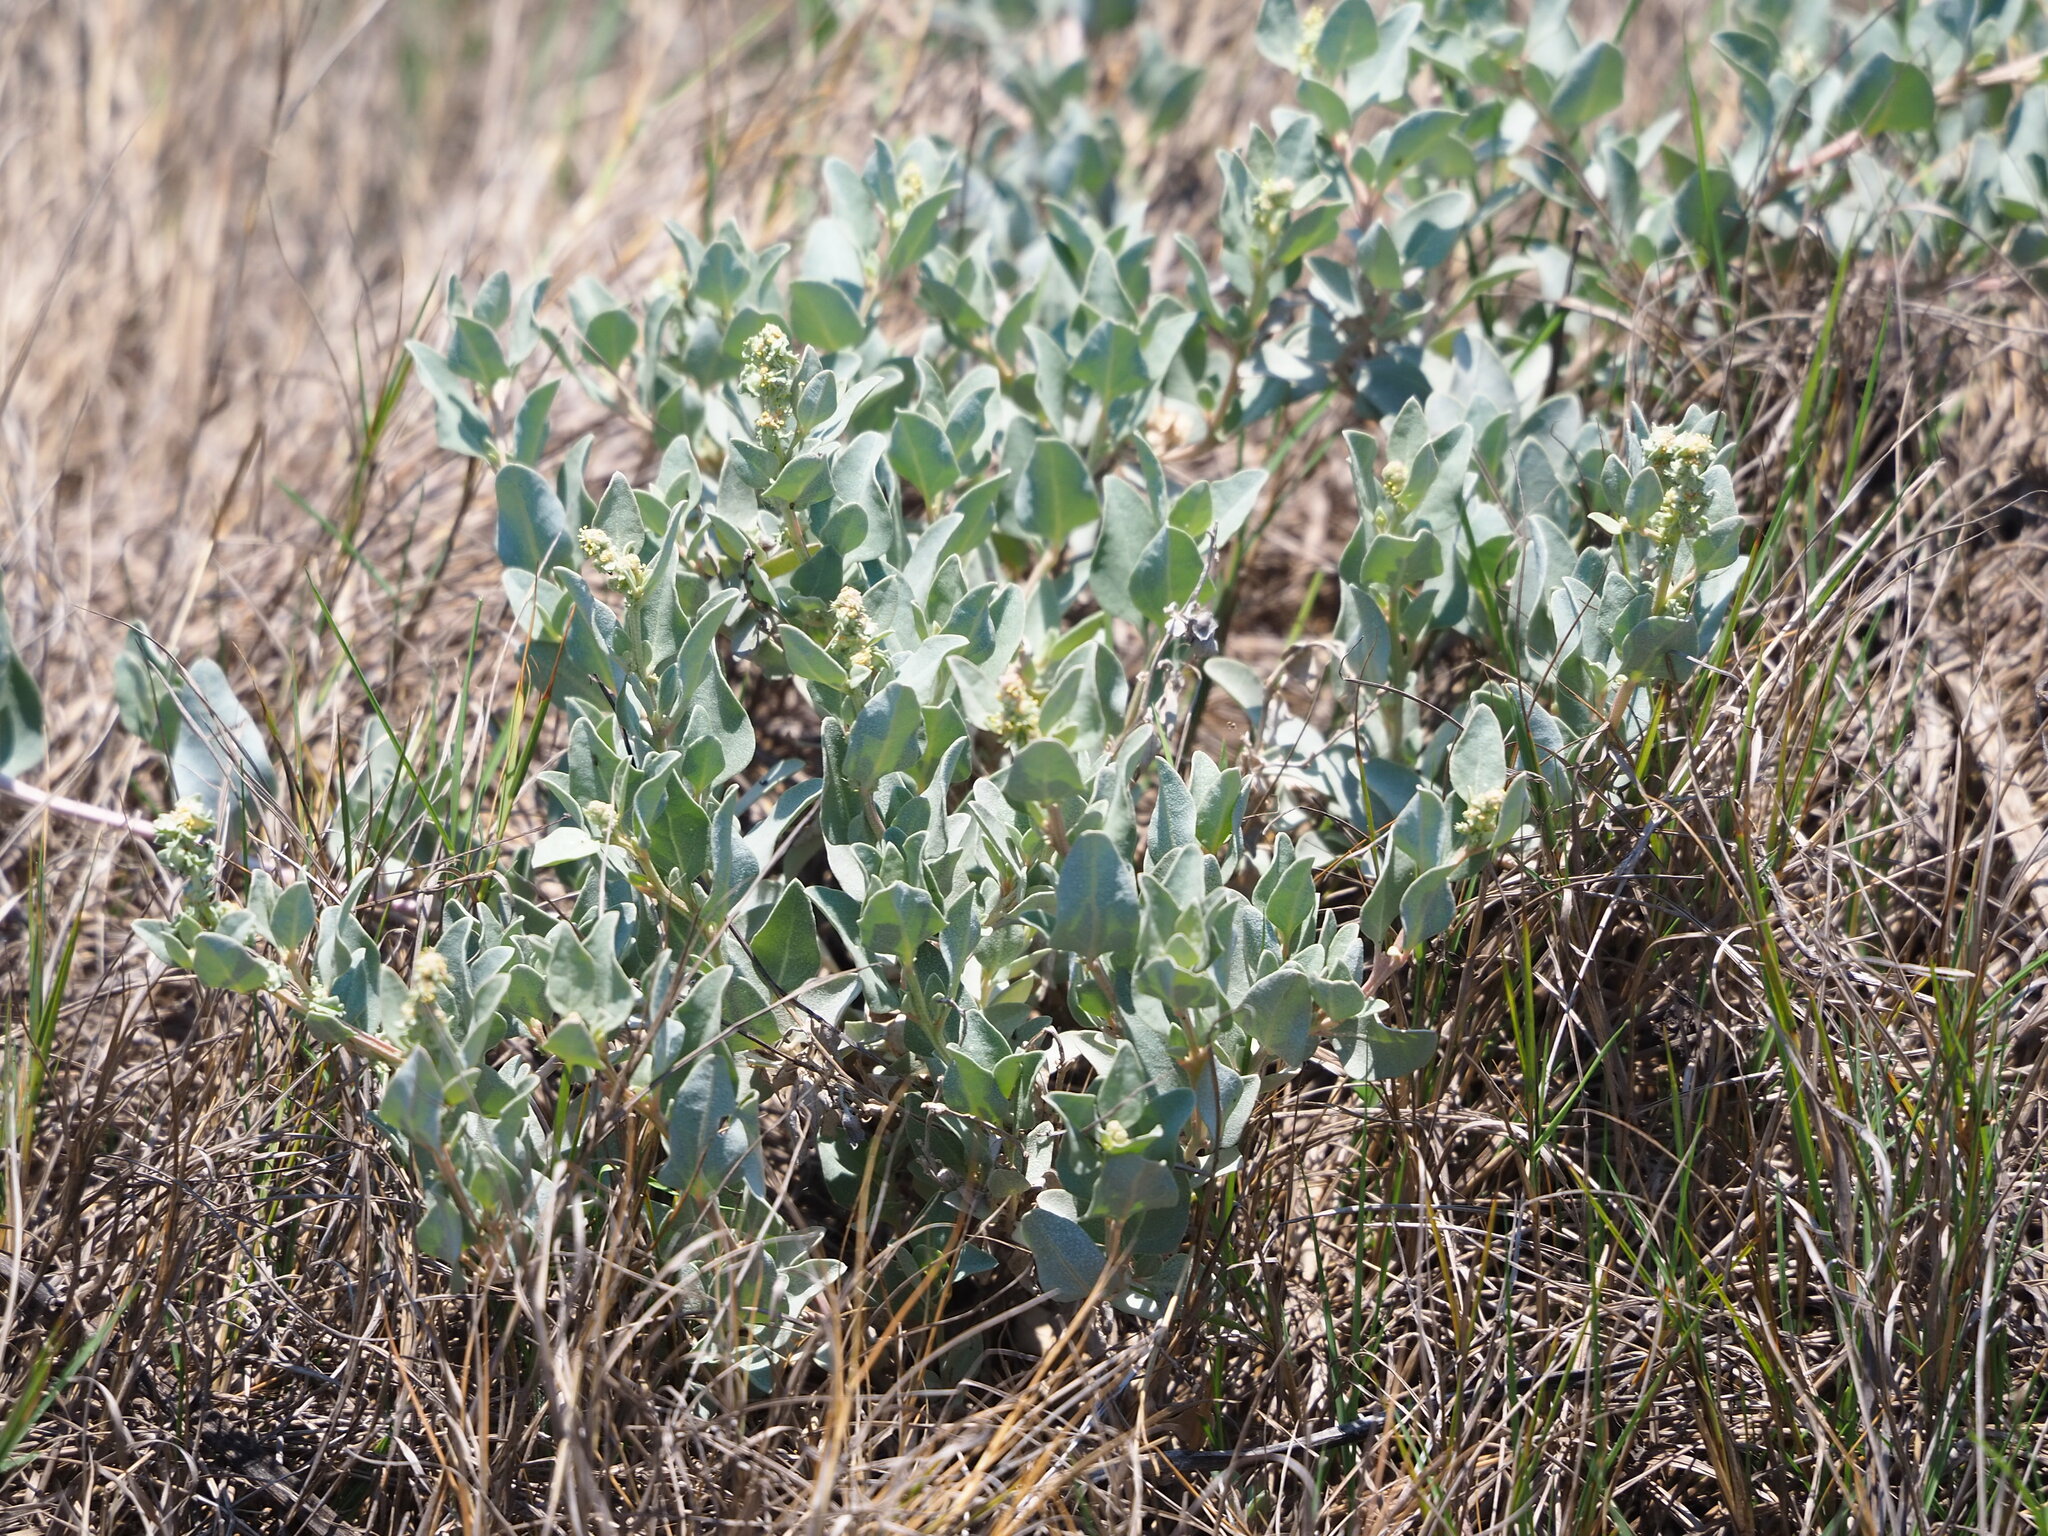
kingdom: Plantae
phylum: Tracheophyta
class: Magnoliopsida
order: Caryophyllales
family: Amaranthaceae
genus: Atriplex
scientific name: Atriplex maximowicziana
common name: Maximowicz's saltbush
